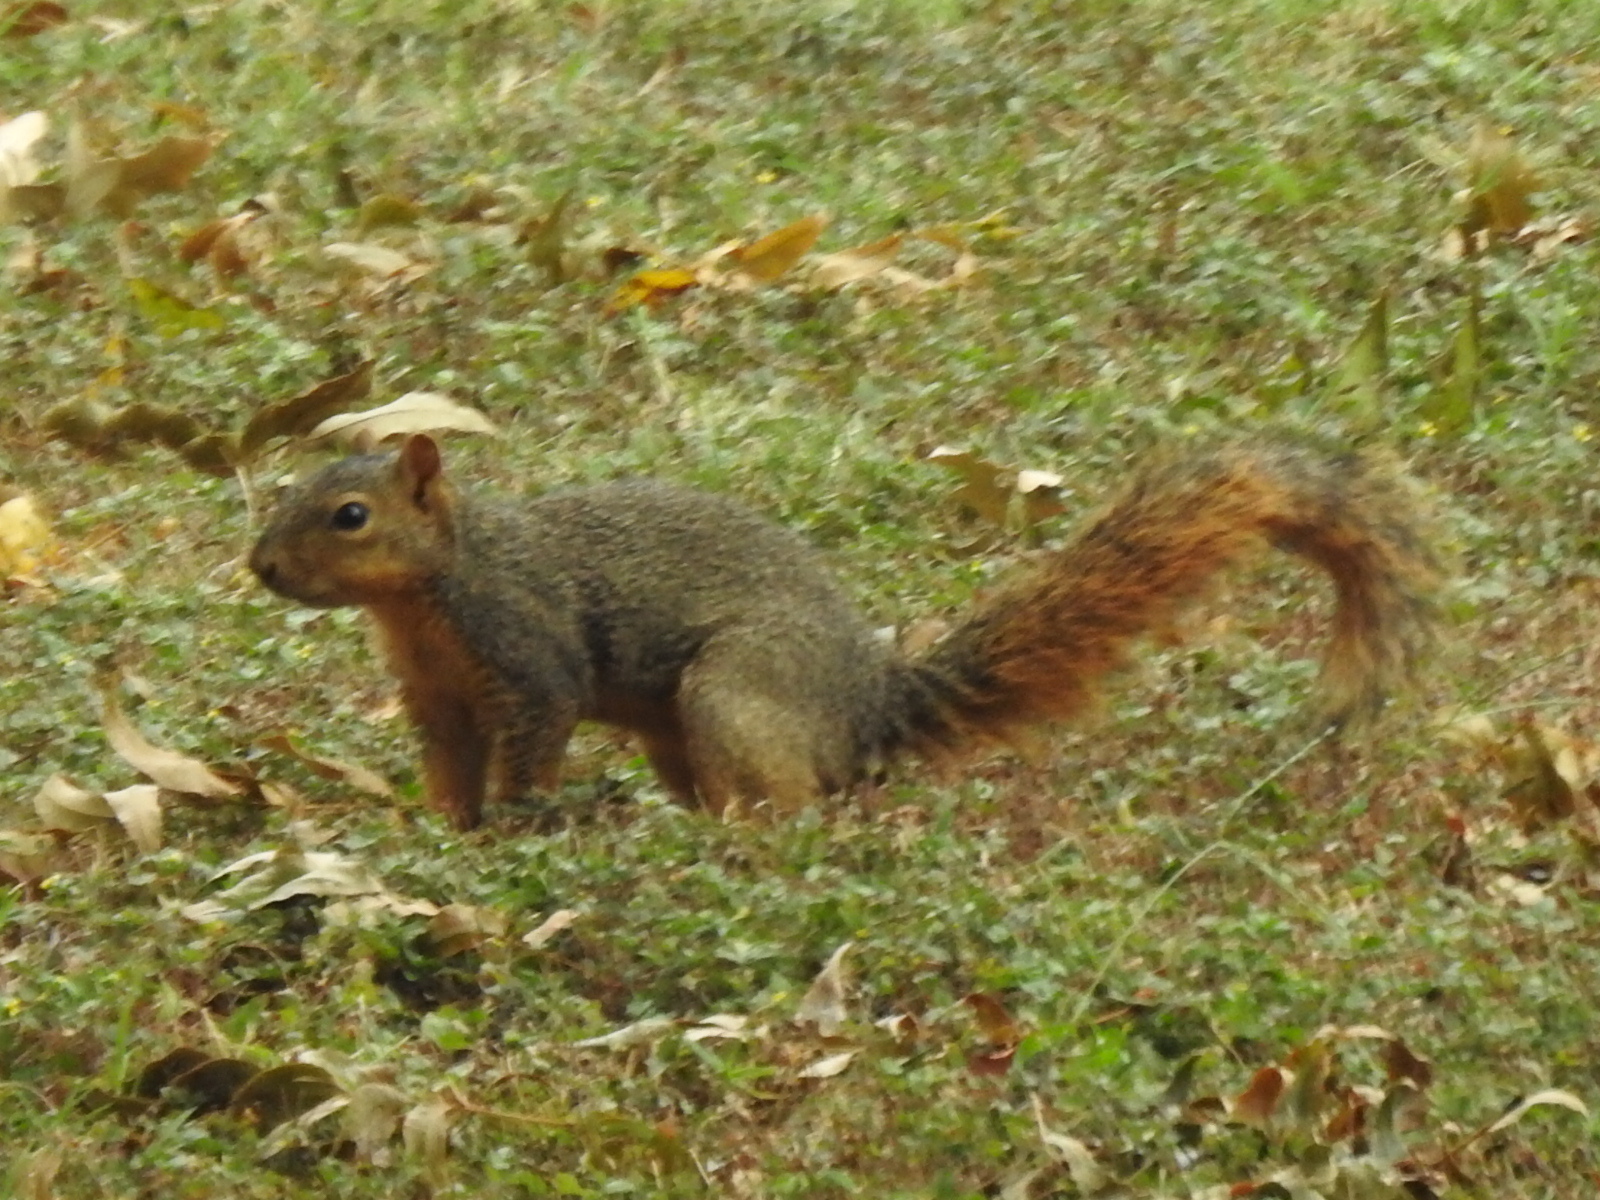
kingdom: Animalia
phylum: Chordata
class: Mammalia
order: Rodentia
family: Sciuridae
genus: Sciurus
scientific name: Sciurus niger
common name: Fox squirrel
